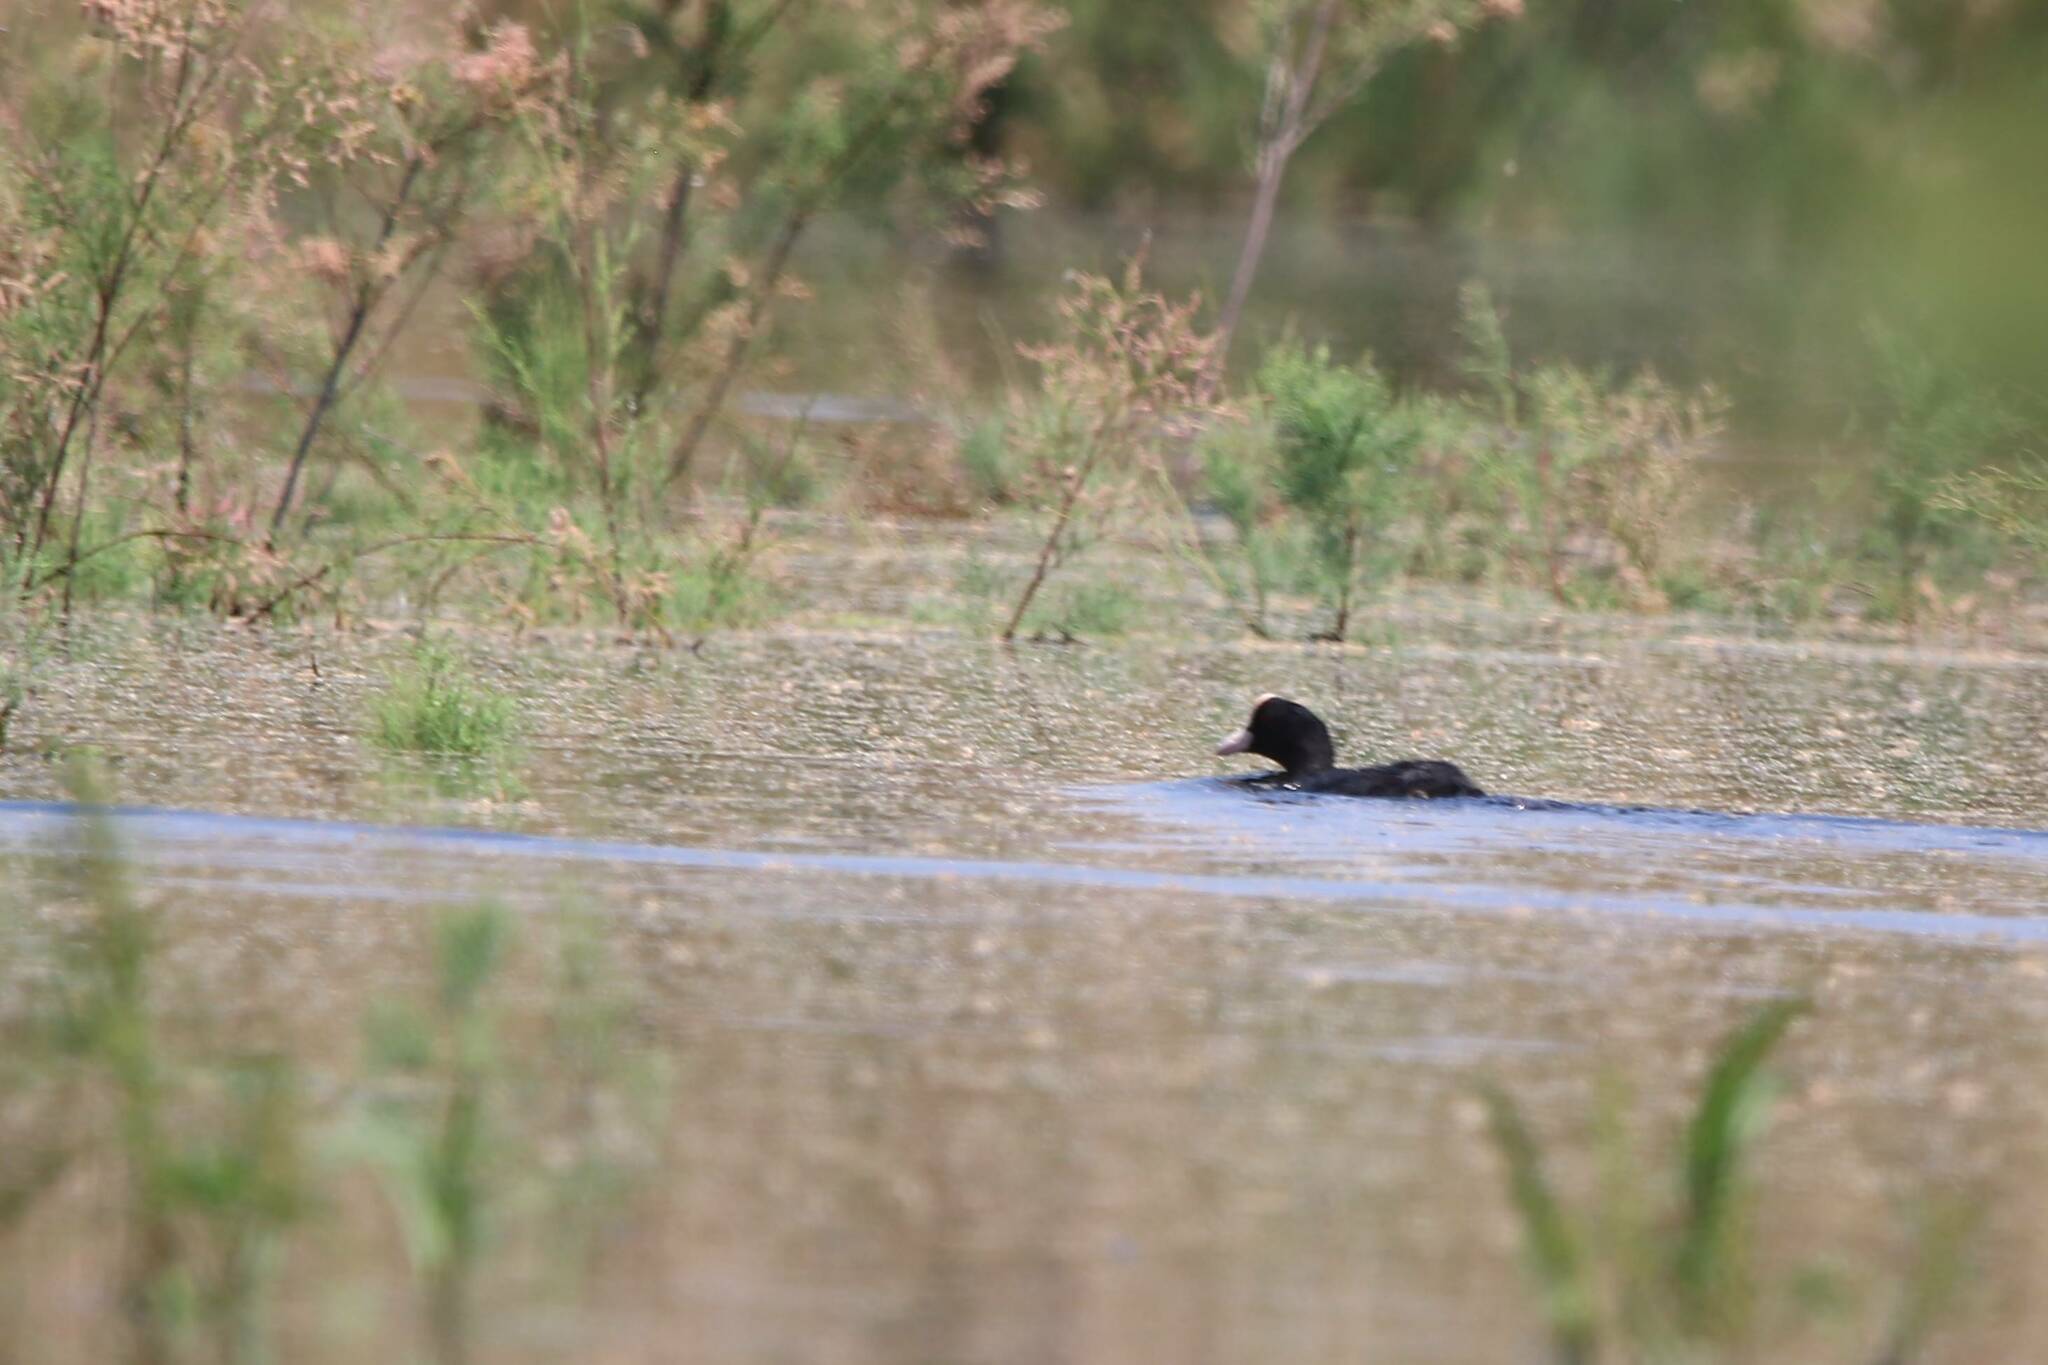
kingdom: Animalia
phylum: Chordata
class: Aves
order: Gruiformes
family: Rallidae
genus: Fulica
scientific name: Fulica atra
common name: Eurasian coot
